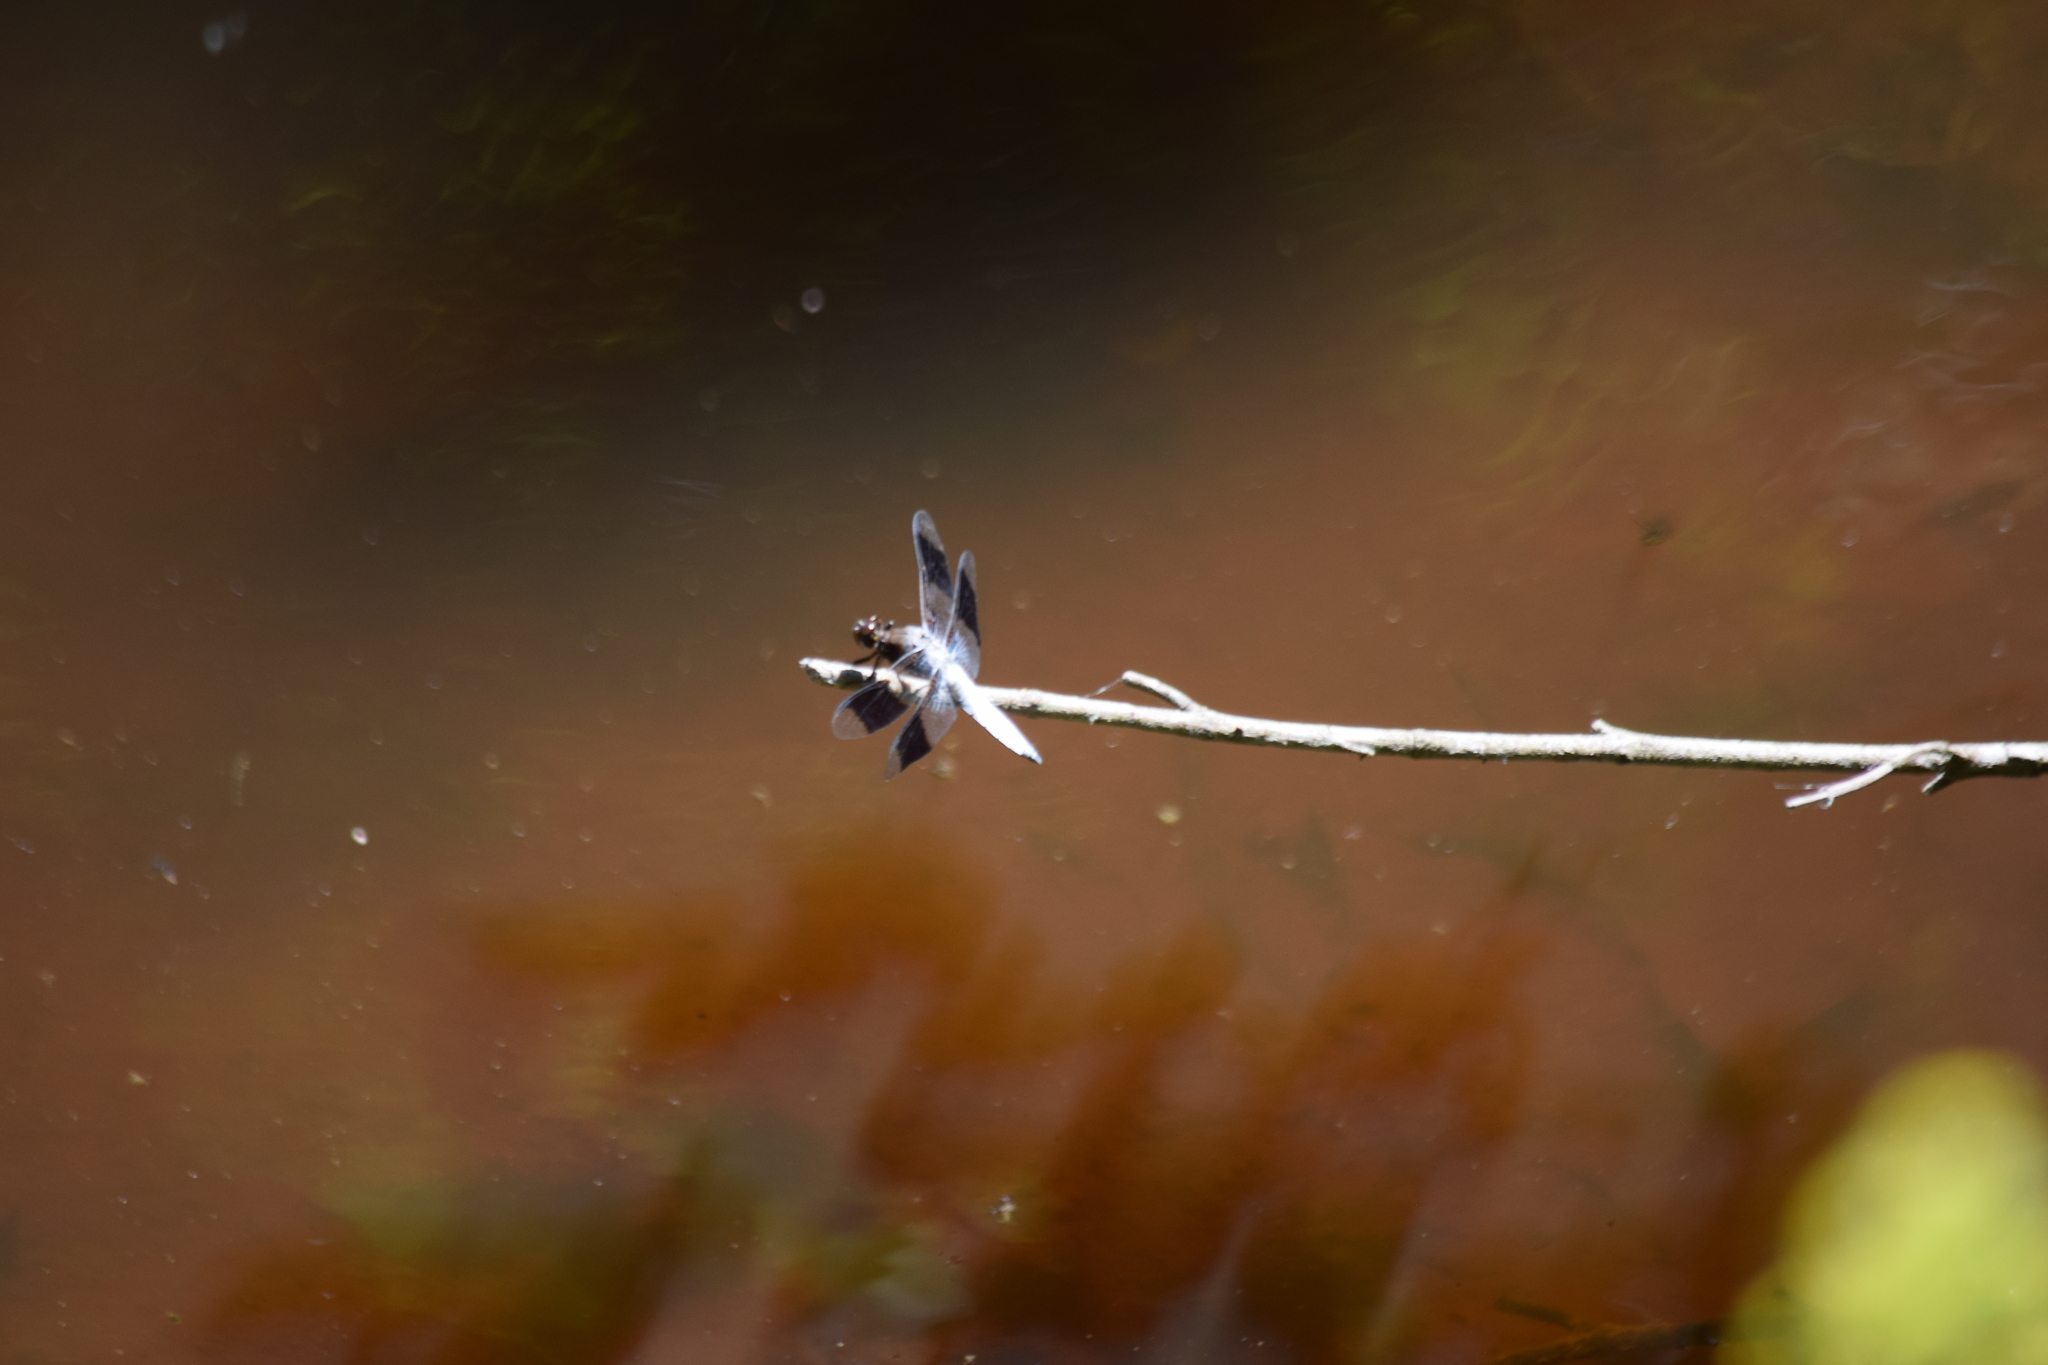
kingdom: Animalia
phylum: Arthropoda
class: Insecta
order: Odonata
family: Libellulidae
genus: Plathemis
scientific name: Plathemis lydia
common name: Common whitetail
